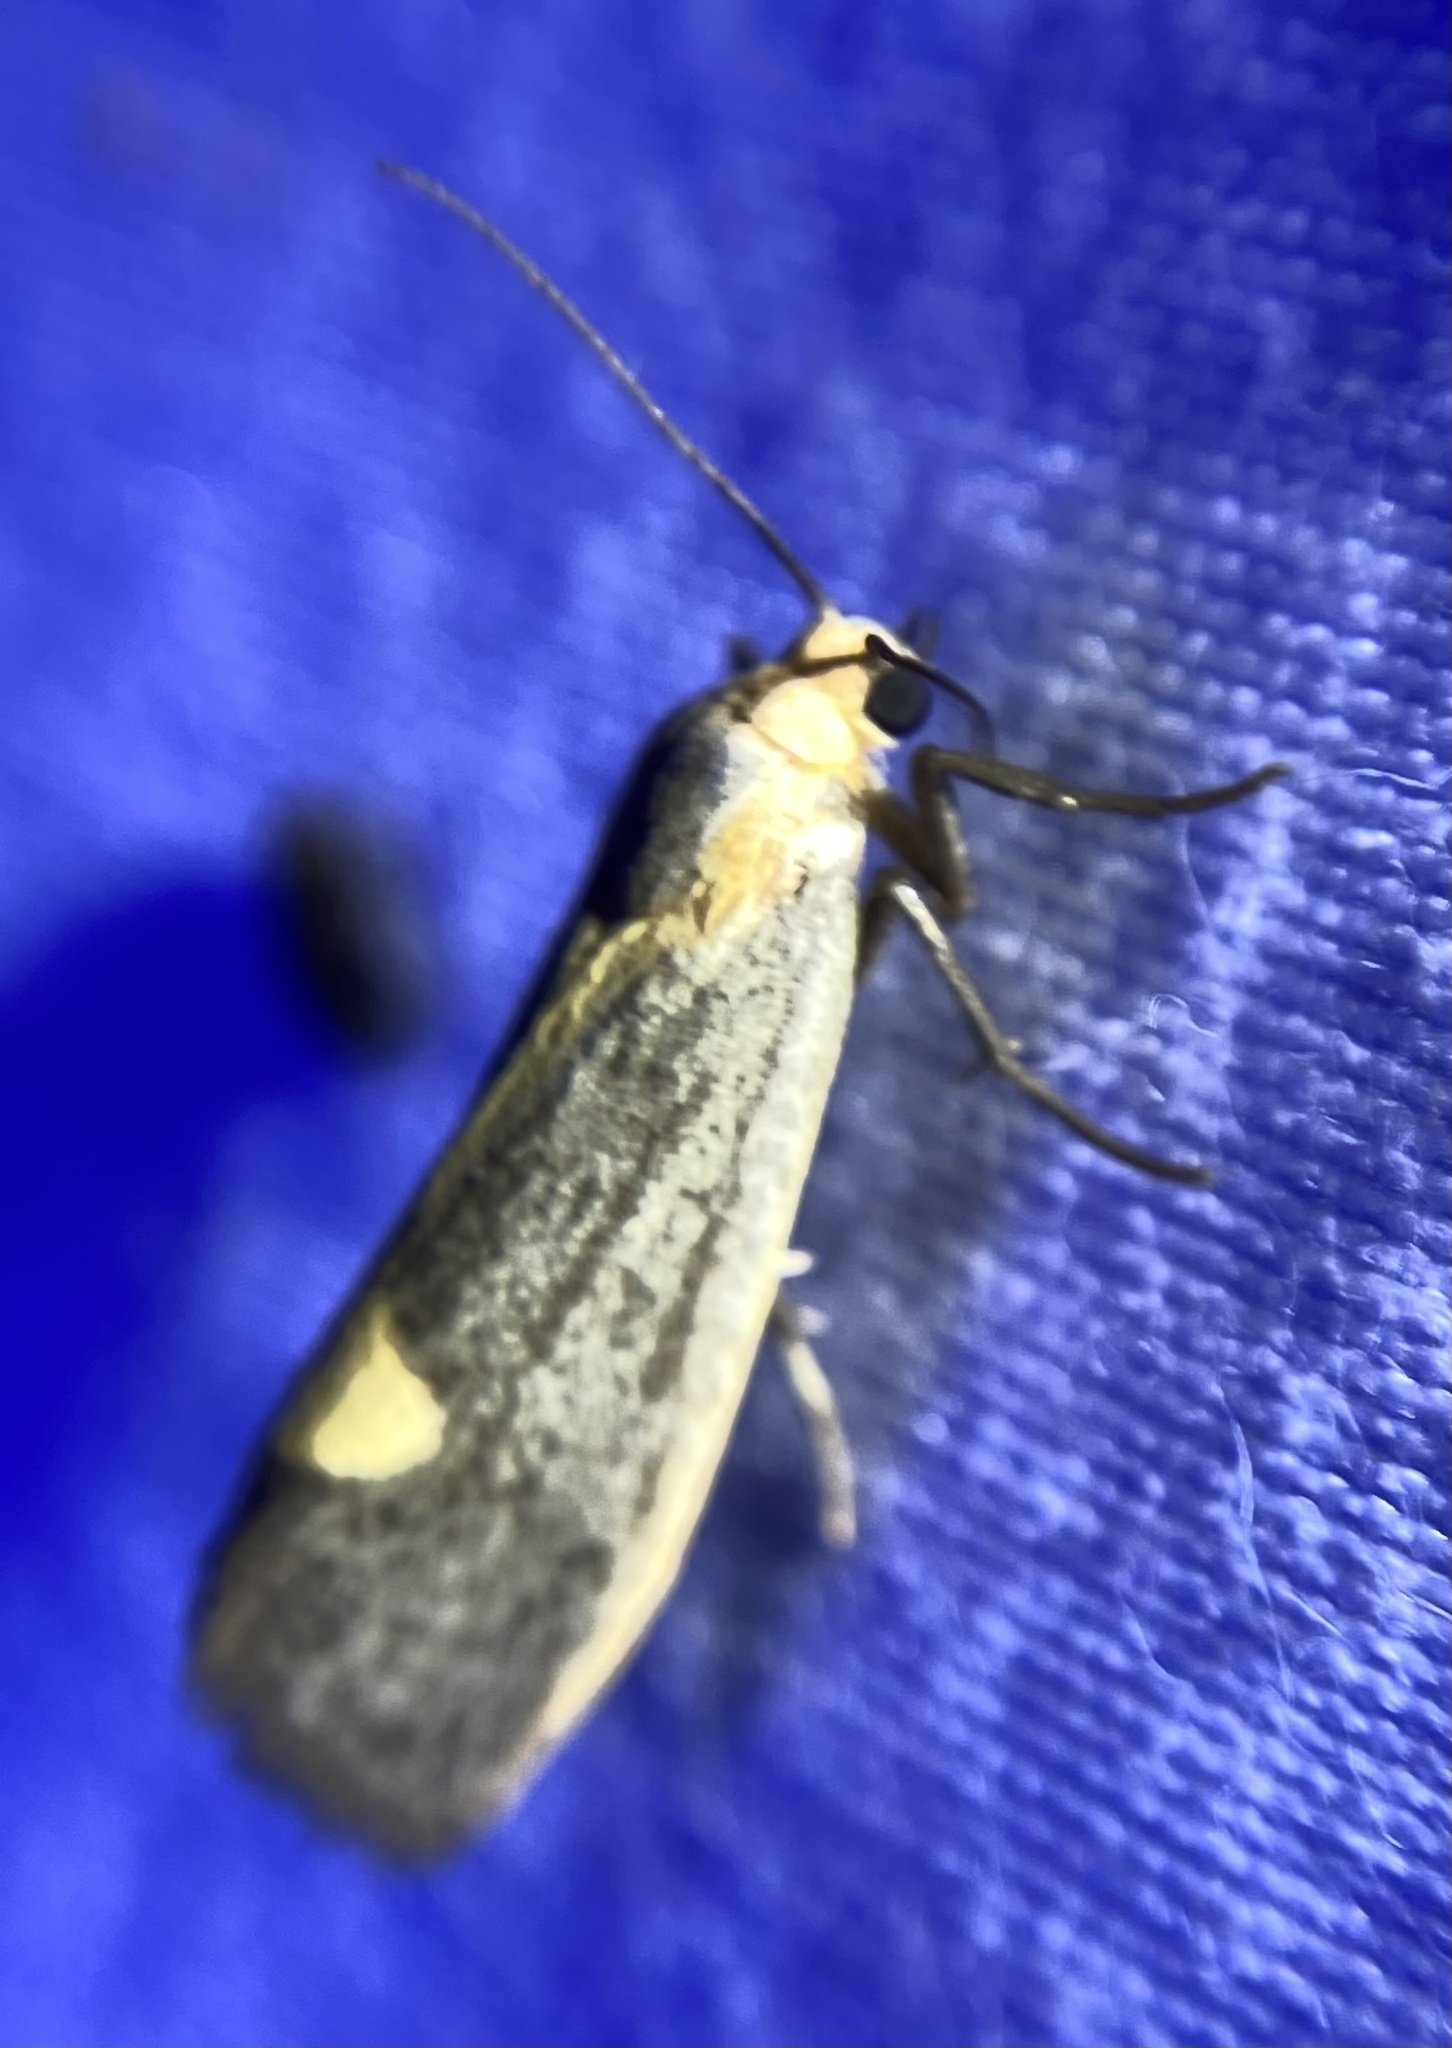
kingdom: Animalia
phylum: Arthropoda
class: Insecta
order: Lepidoptera
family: Erebidae
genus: Cisthene
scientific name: Cisthene plumbea
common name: Lead colored lichen moth
